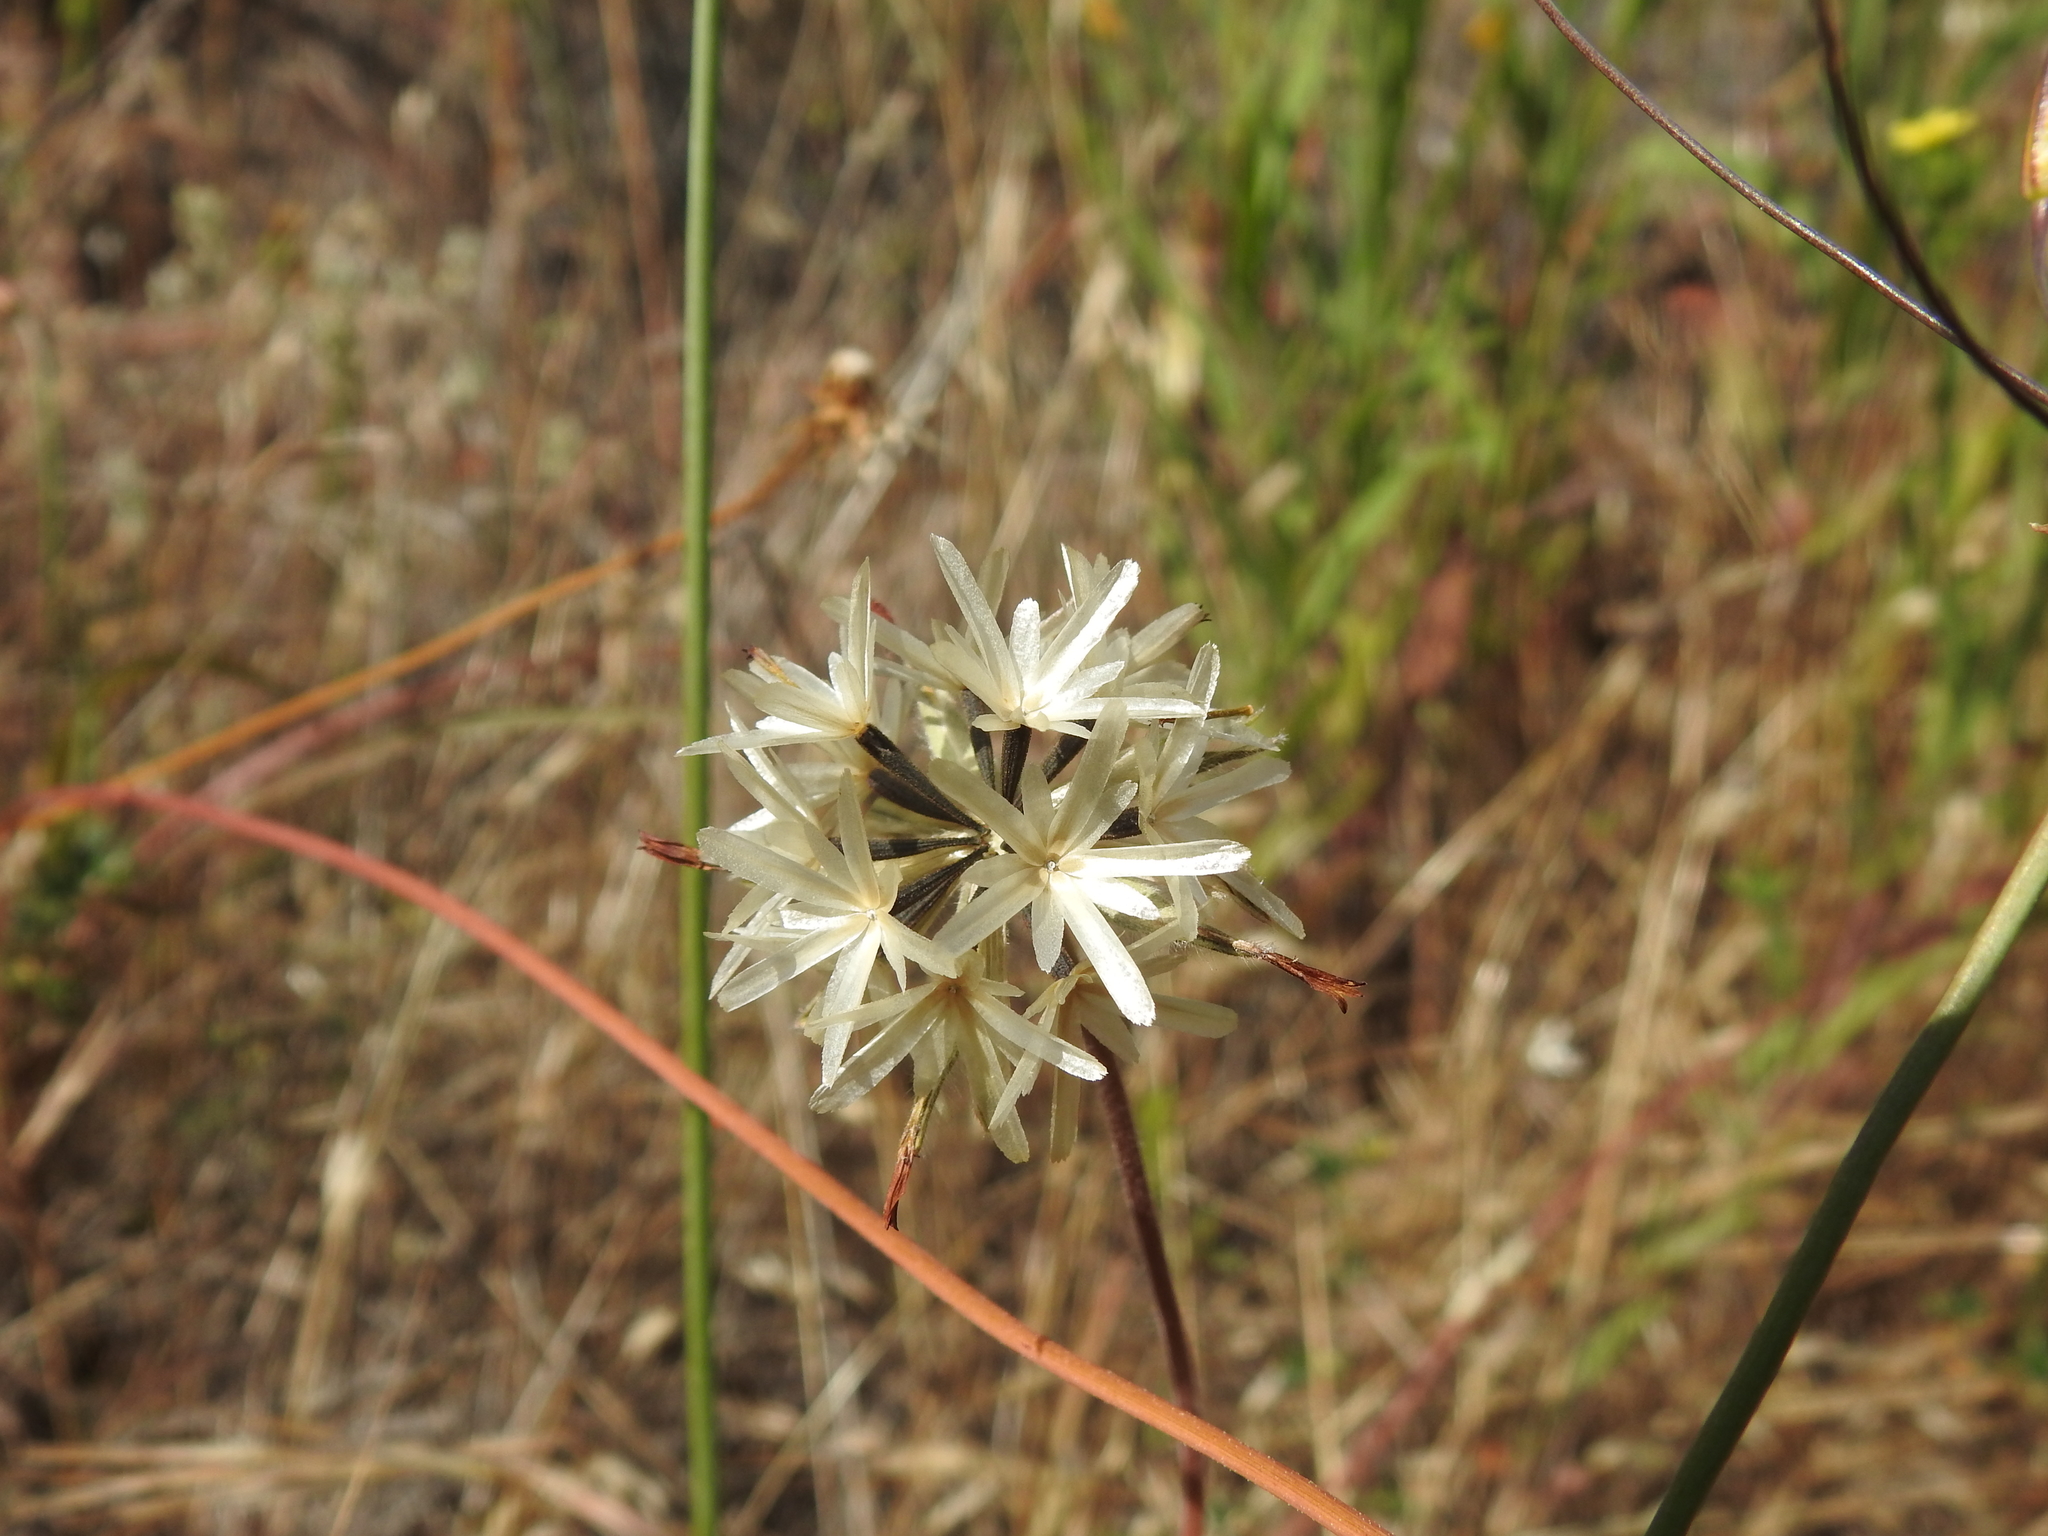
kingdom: Plantae
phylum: Tracheophyta
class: Magnoliopsida
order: Asterales
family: Asteraceae
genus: Achyrachaena
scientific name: Achyrachaena mollis
